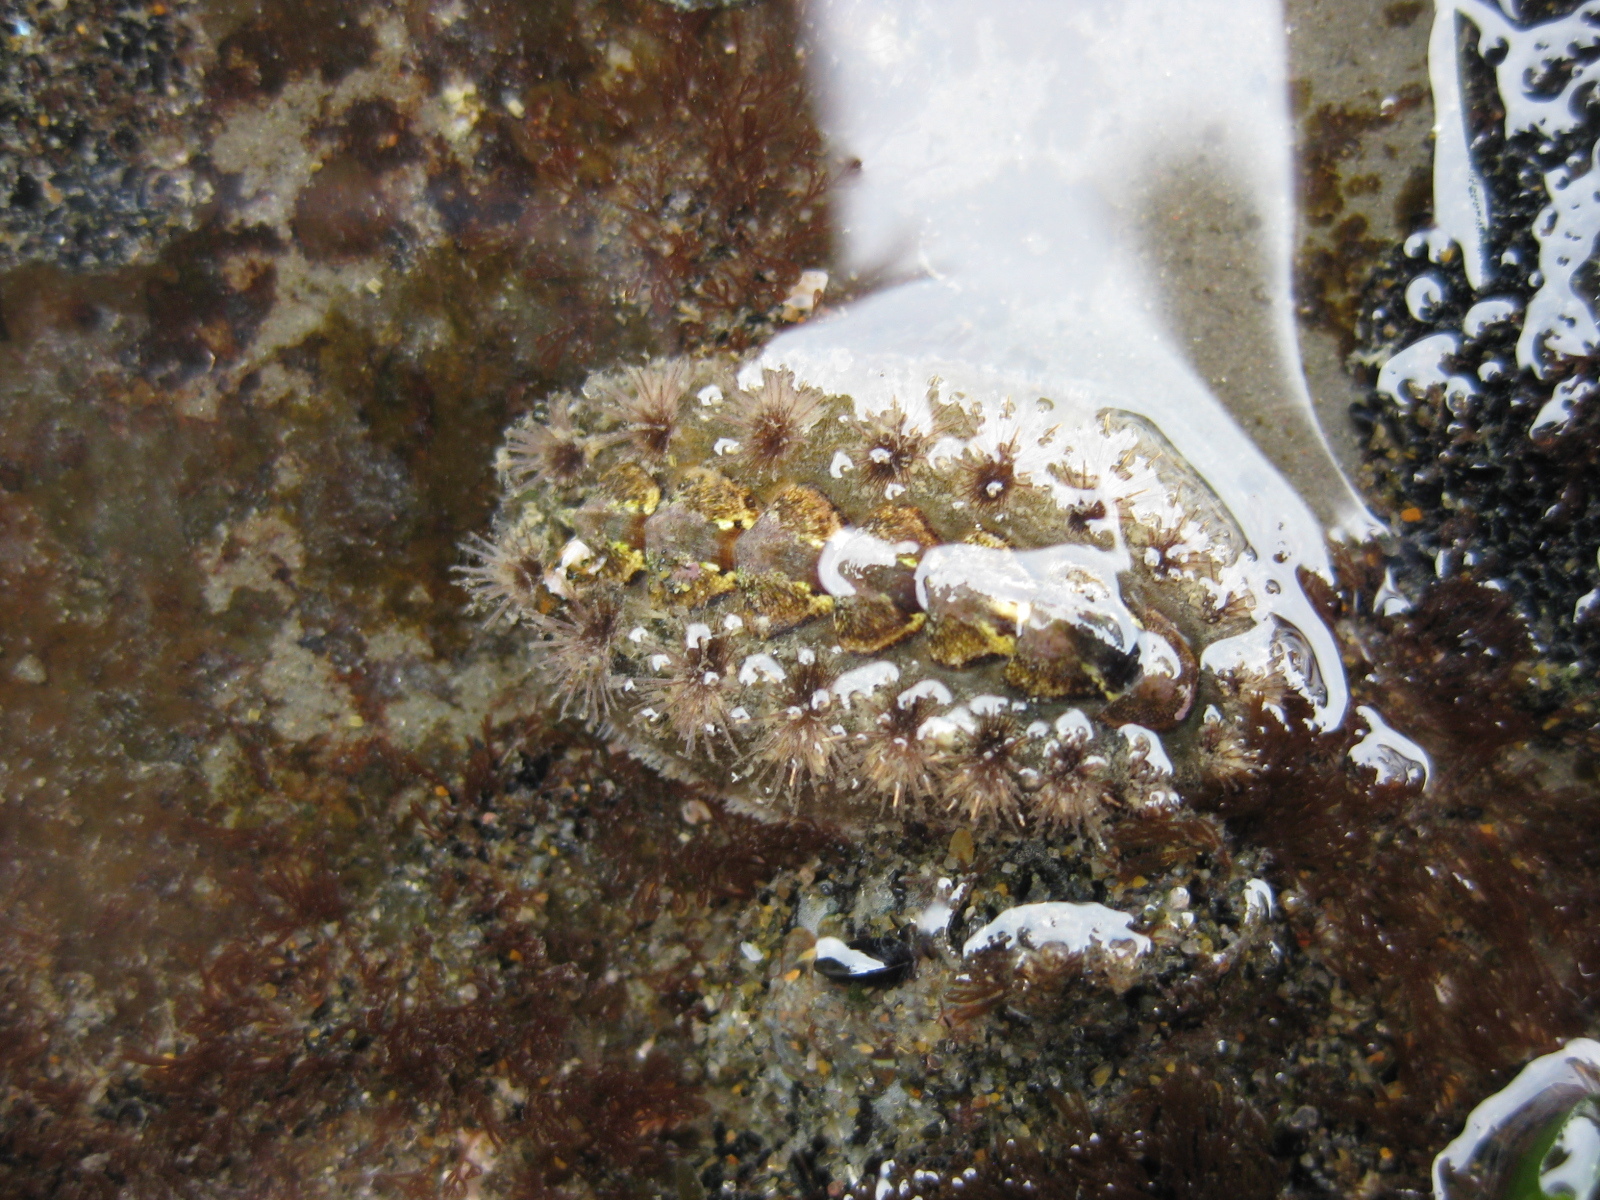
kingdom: Animalia
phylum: Mollusca
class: Polyplacophora
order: Chitonida
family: Acanthochitonidae
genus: Acanthochitona
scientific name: Acanthochitona zelandica
